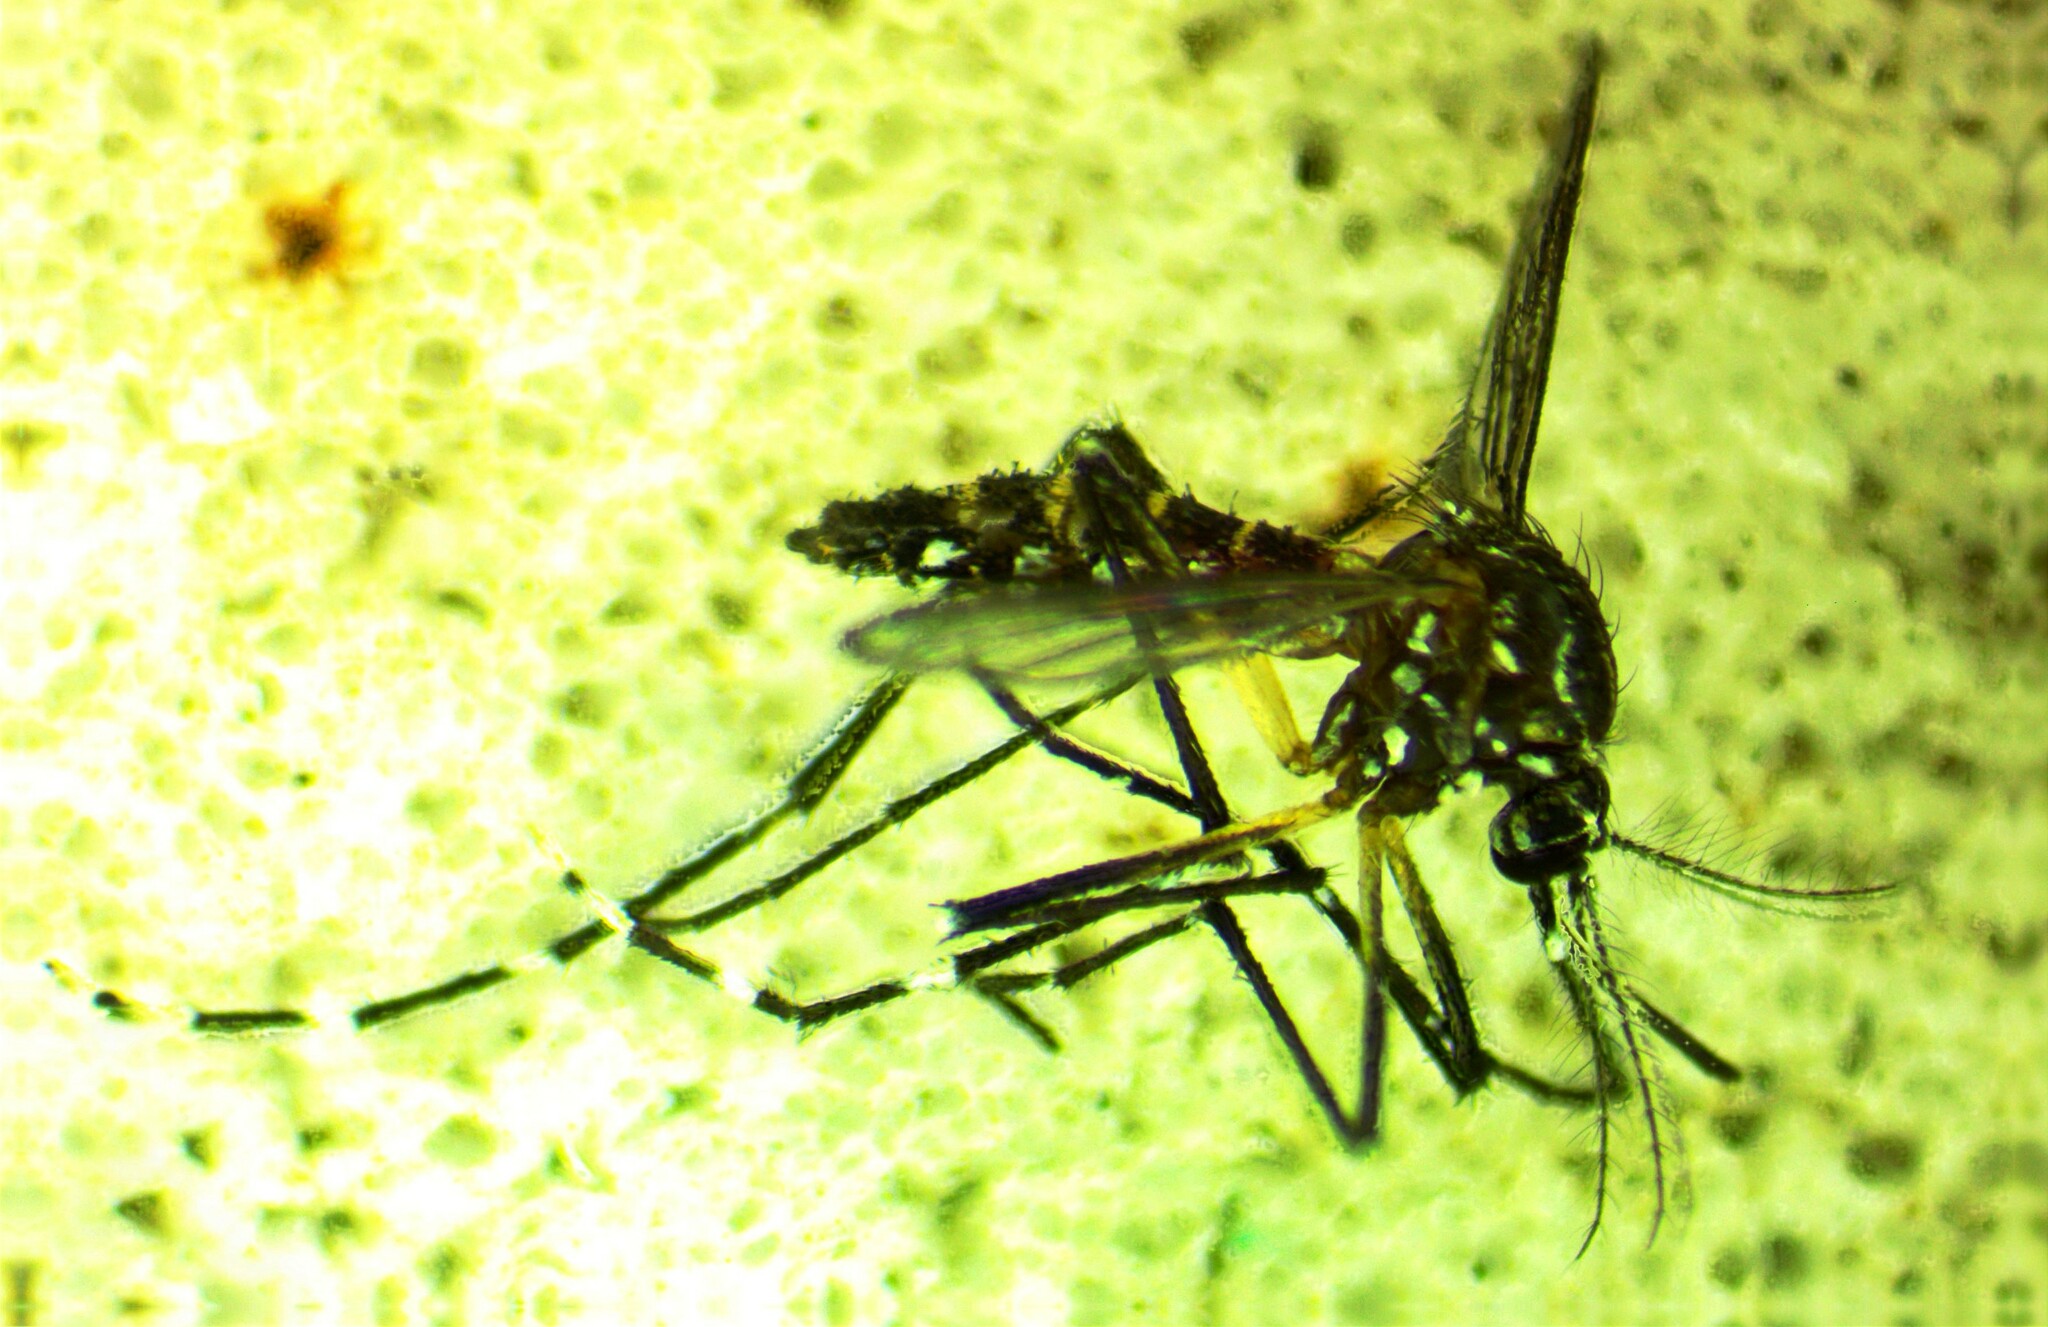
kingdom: Animalia
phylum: Arthropoda
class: Insecta
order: Diptera
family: Culicidae
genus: Aedes
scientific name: Aedes aegypti
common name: Yellow fever mosquito
